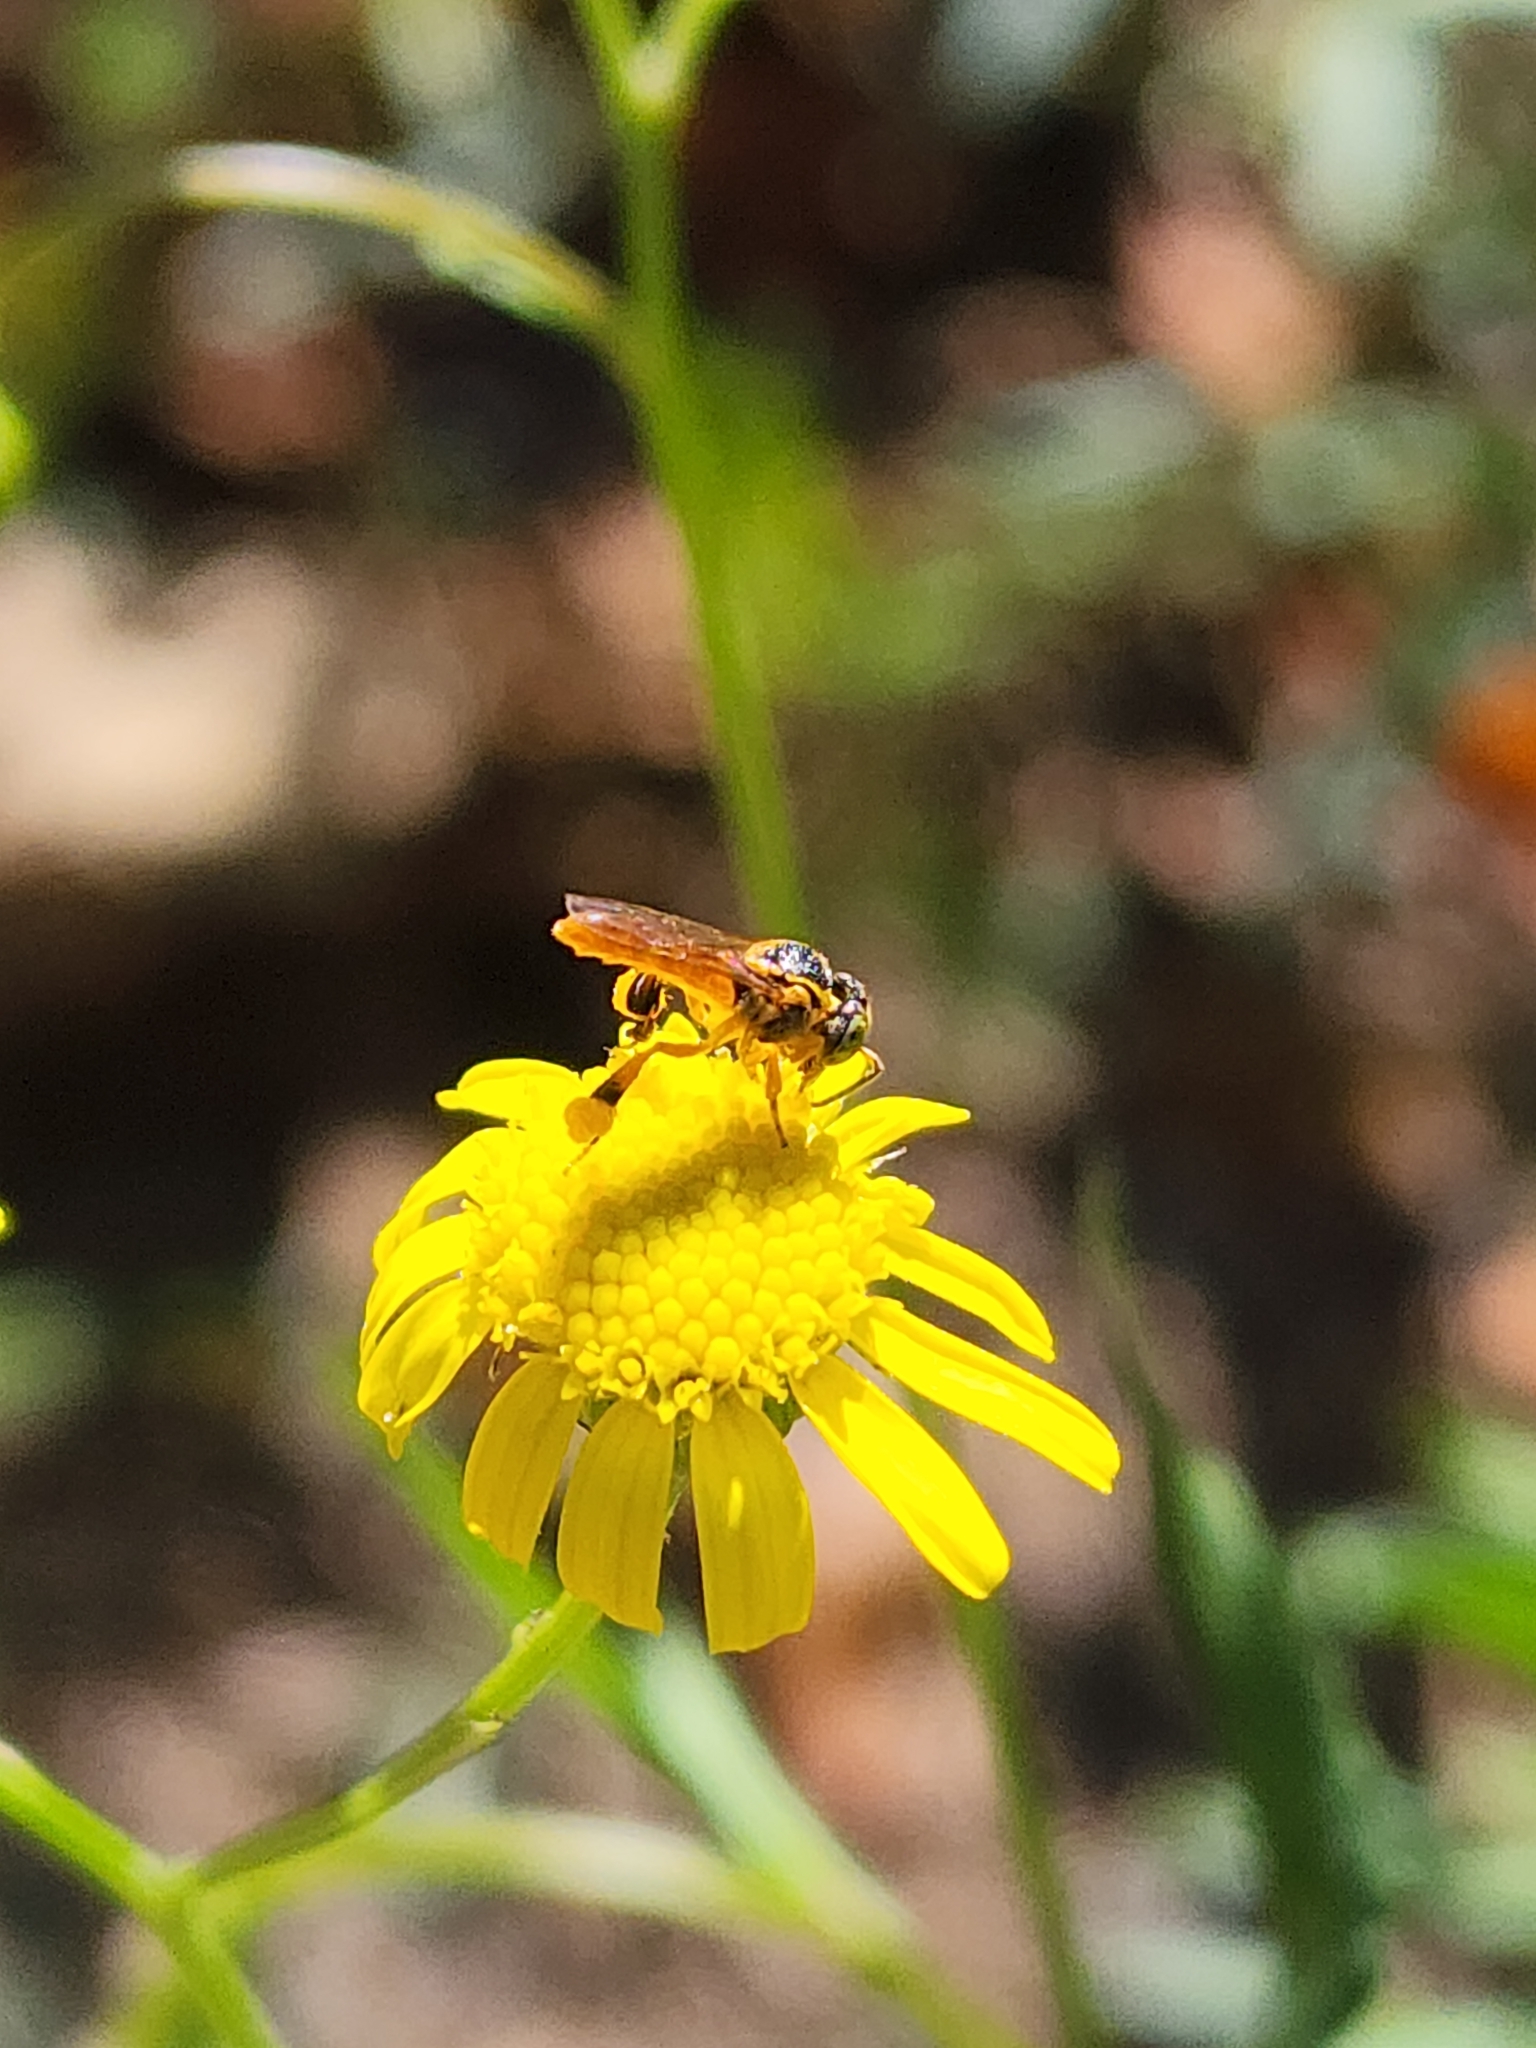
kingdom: Animalia
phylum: Arthropoda
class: Insecta
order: Hymenoptera
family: Apidae
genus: Tetragonisca
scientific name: Tetragonisca fiebrigi
